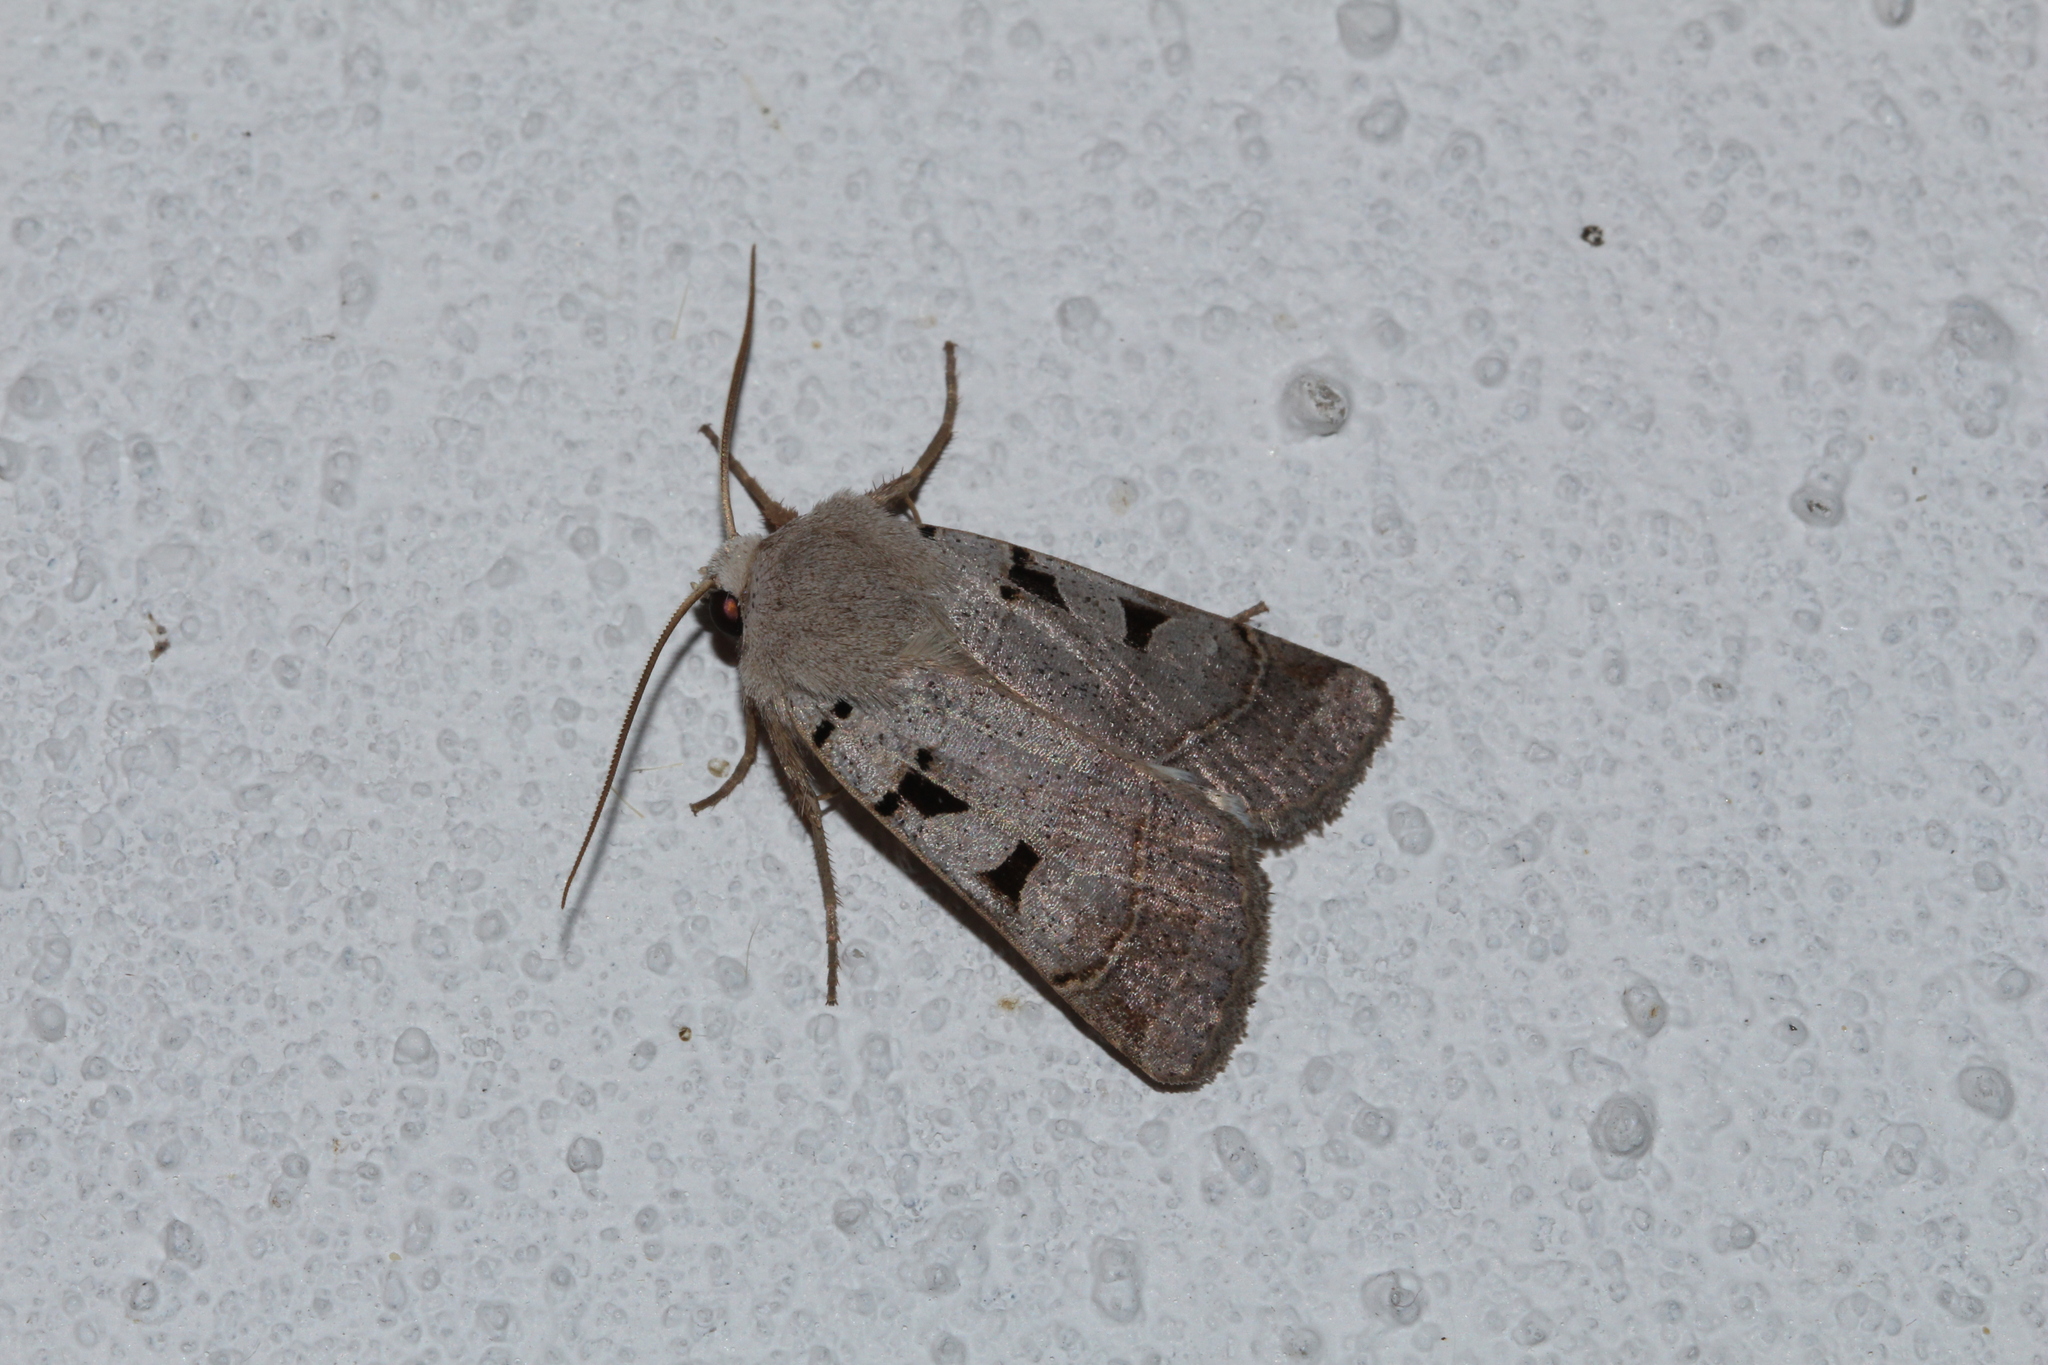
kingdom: Animalia
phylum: Arthropoda
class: Insecta
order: Lepidoptera
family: Noctuidae
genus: Eugnorisma
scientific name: Eugnorisma glareosa
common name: Autumnal rustic
